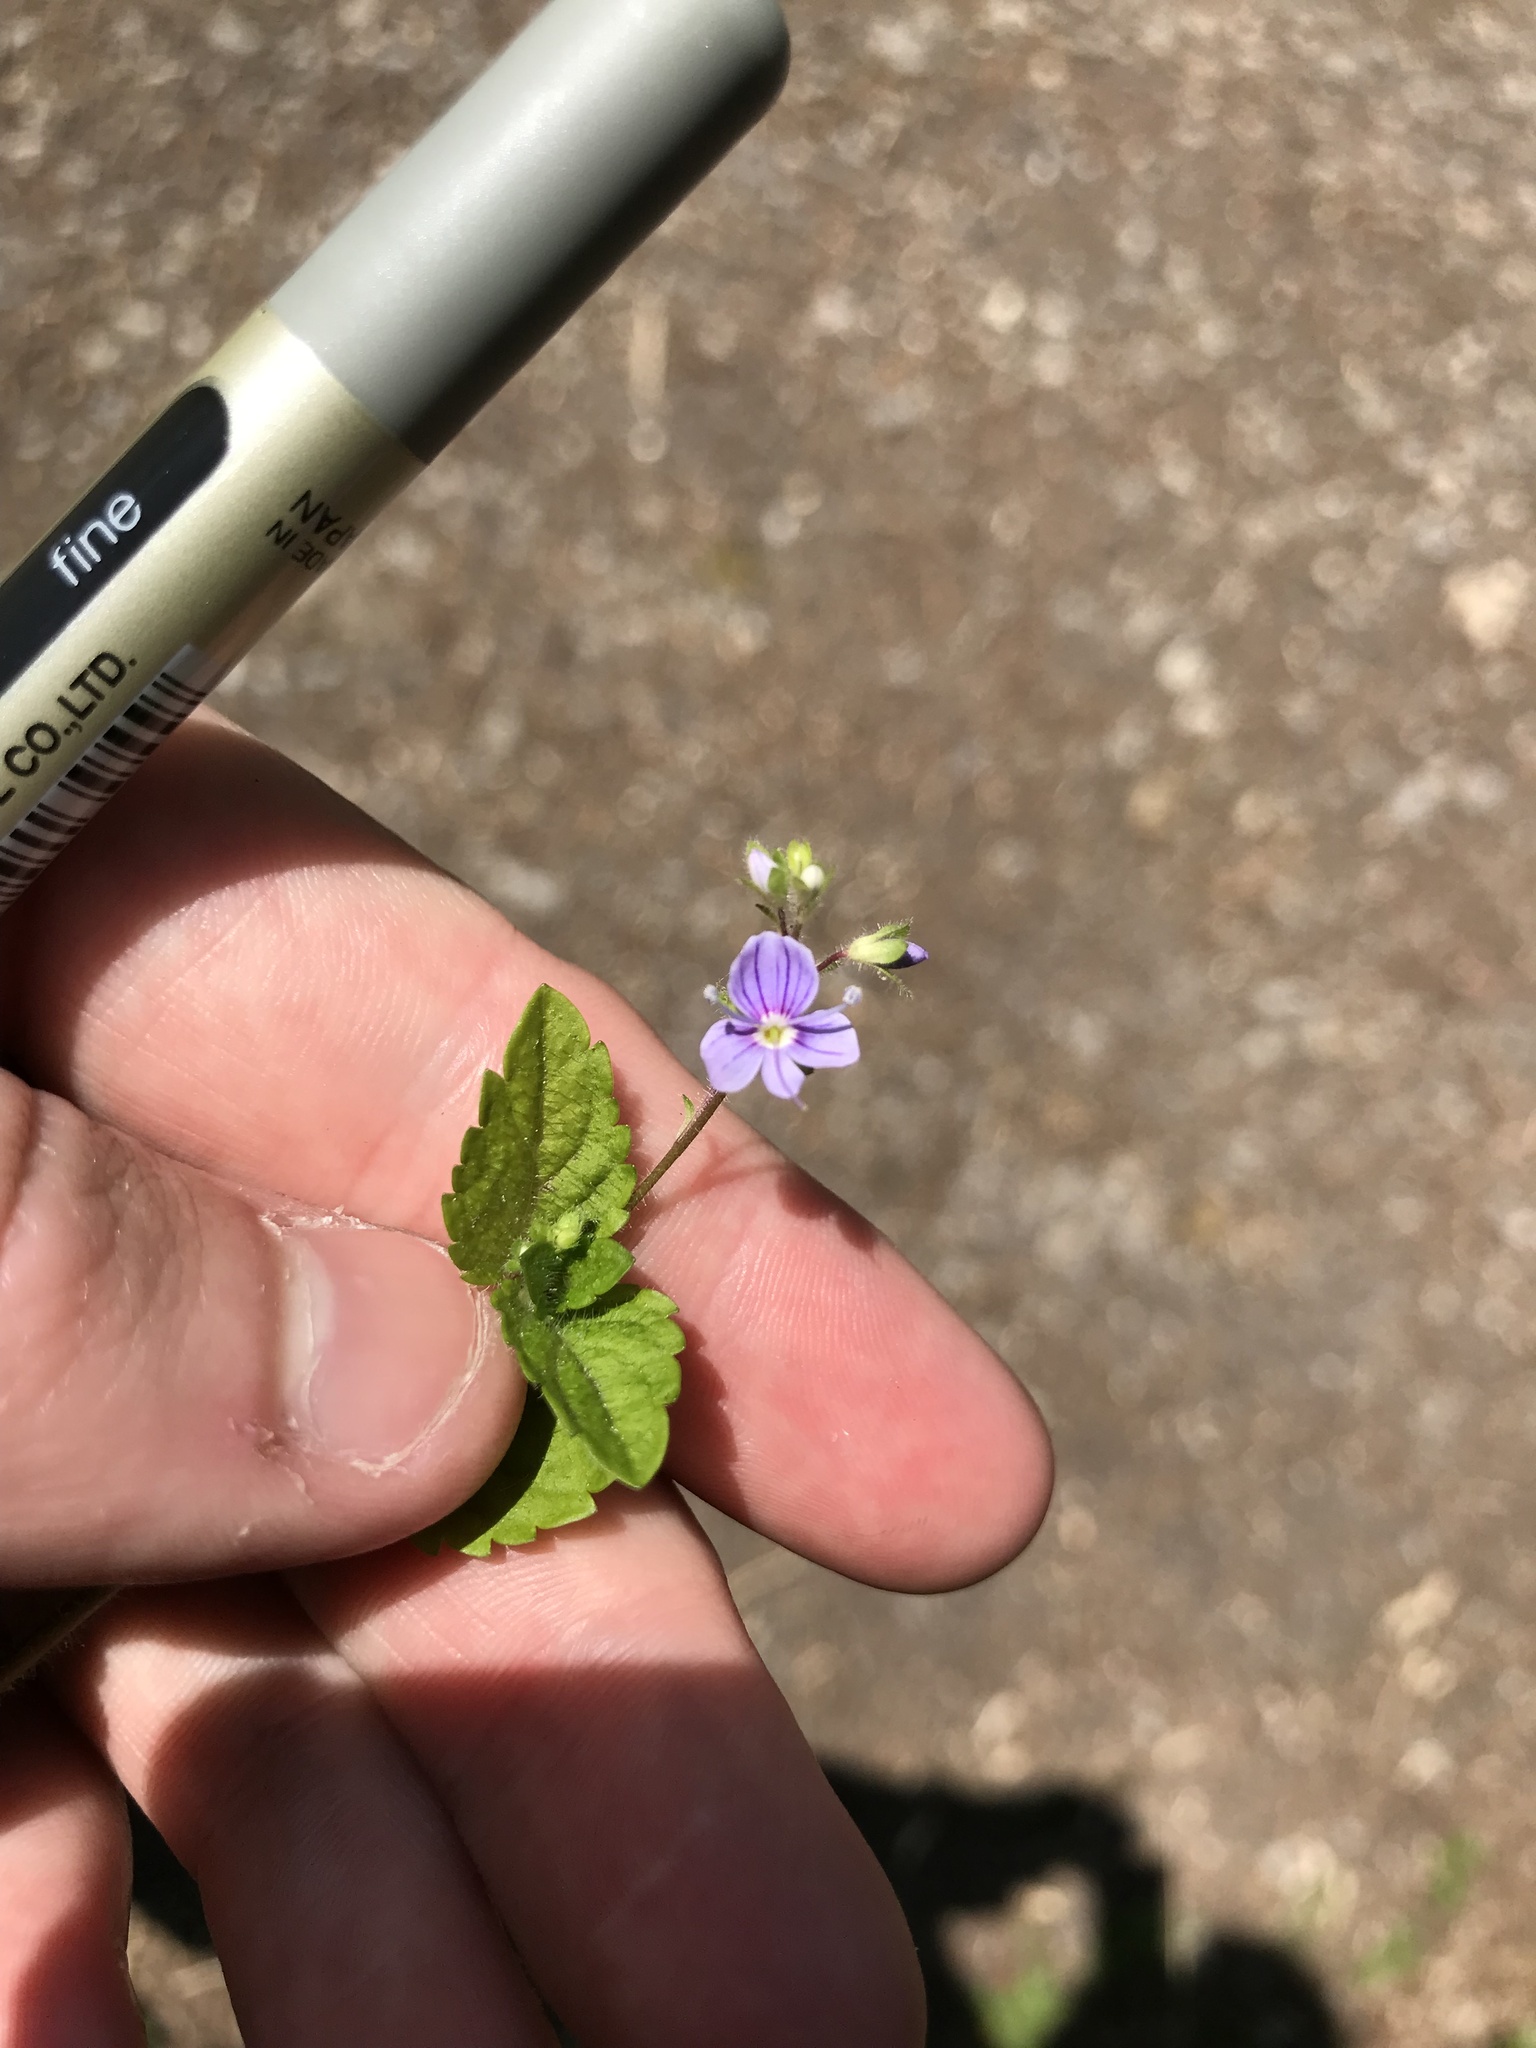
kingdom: Plantae
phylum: Tracheophyta
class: Magnoliopsida
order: Lamiales
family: Plantaginaceae
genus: Veronica
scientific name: Veronica montana
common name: Wood speedwell
